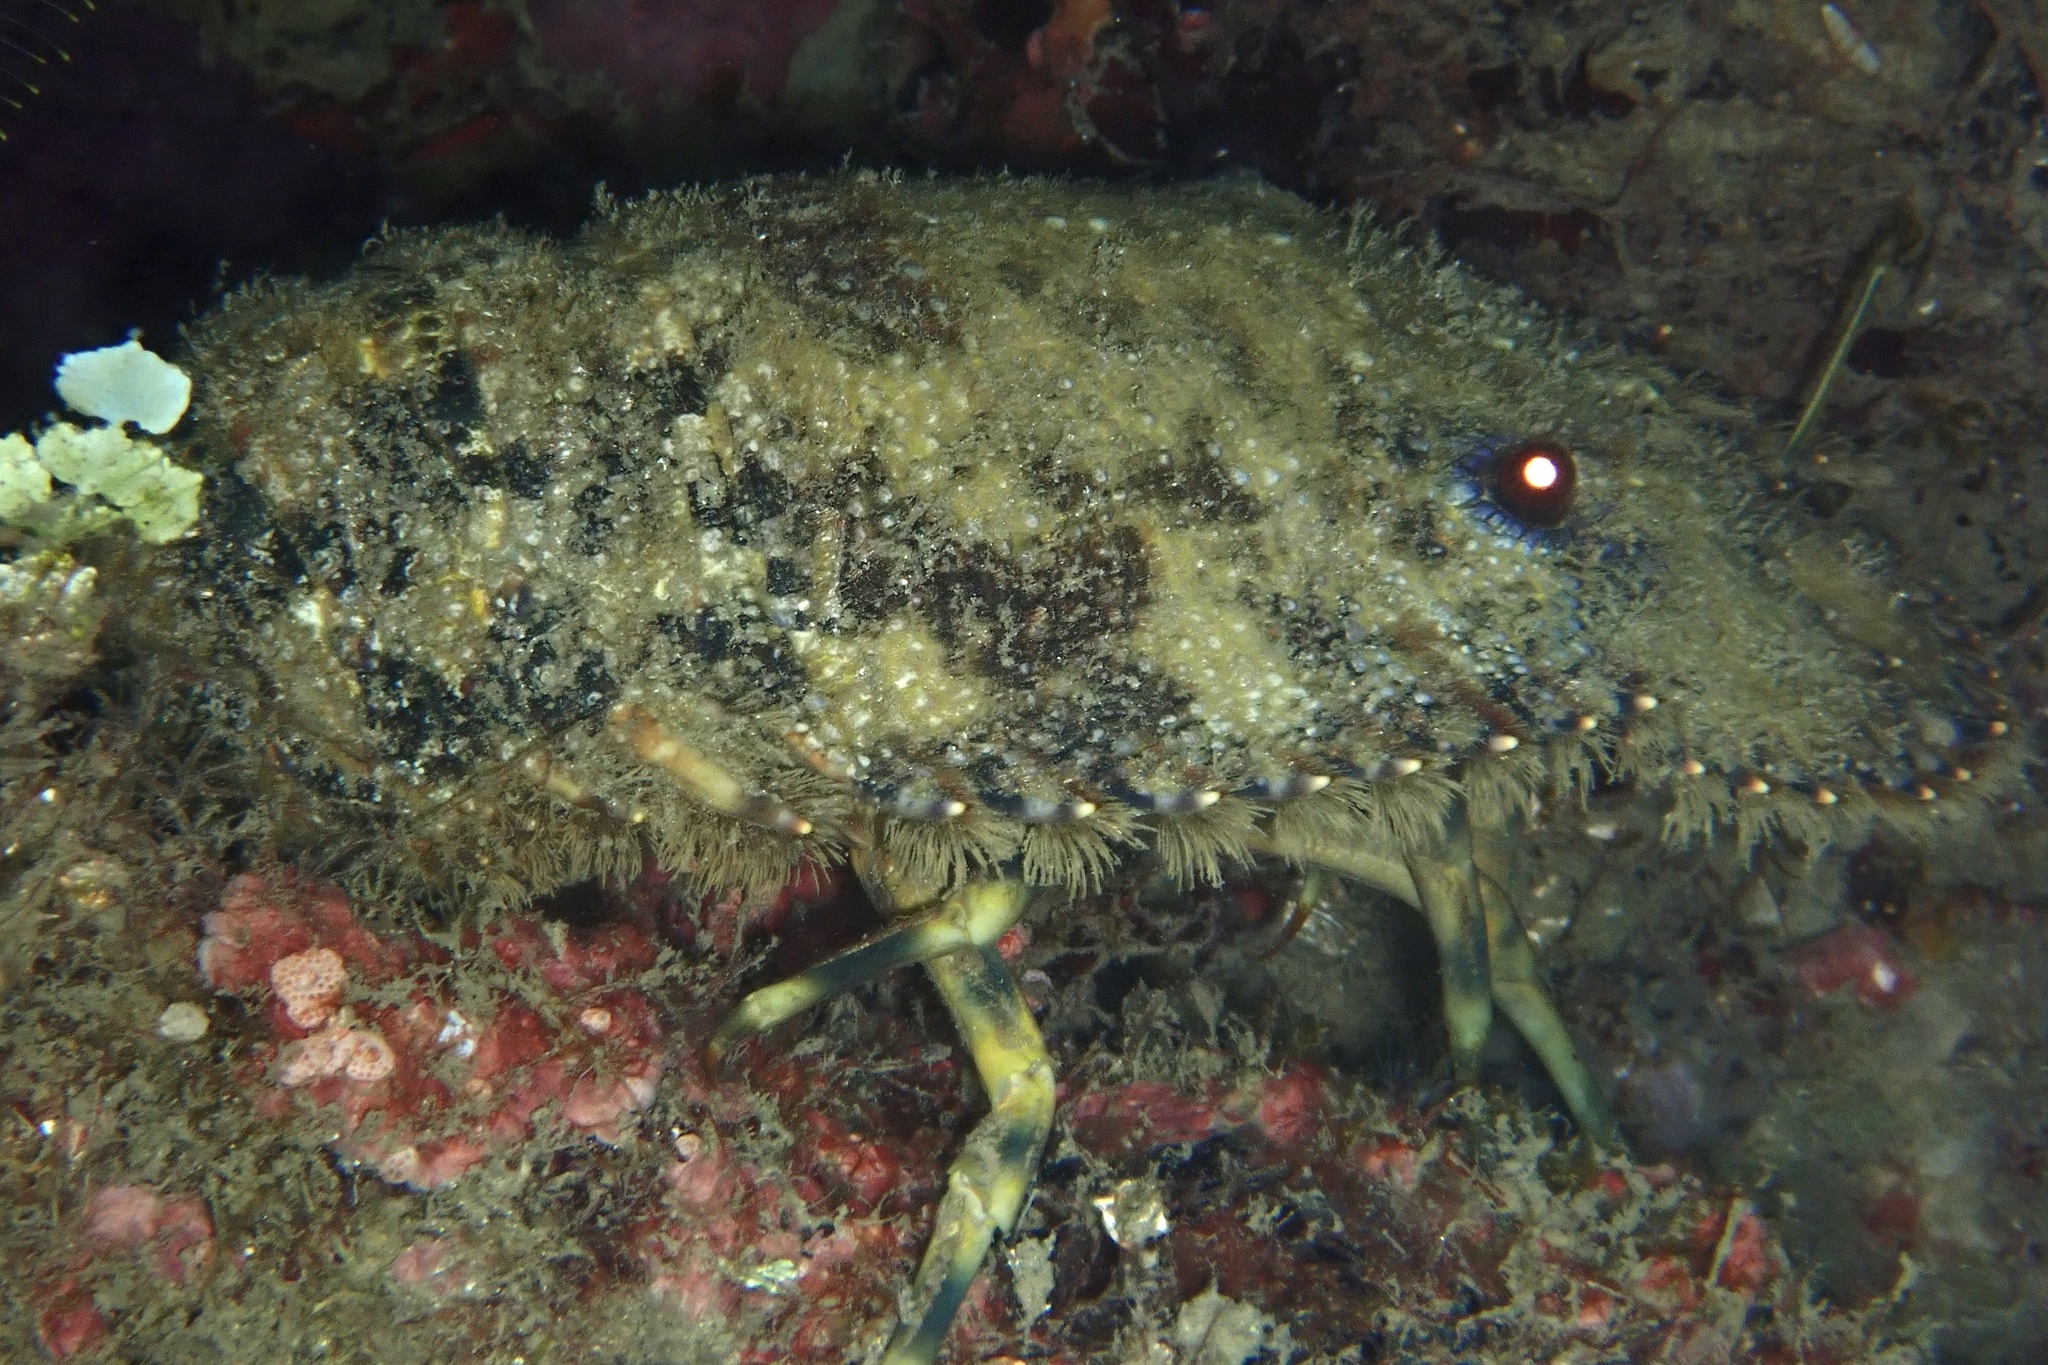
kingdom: Animalia
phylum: Arthropoda
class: Malacostraca
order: Decapoda
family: Scyllaridae
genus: Parribacus
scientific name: Parribacus antarcticus
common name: Sculptured mitten lobster
